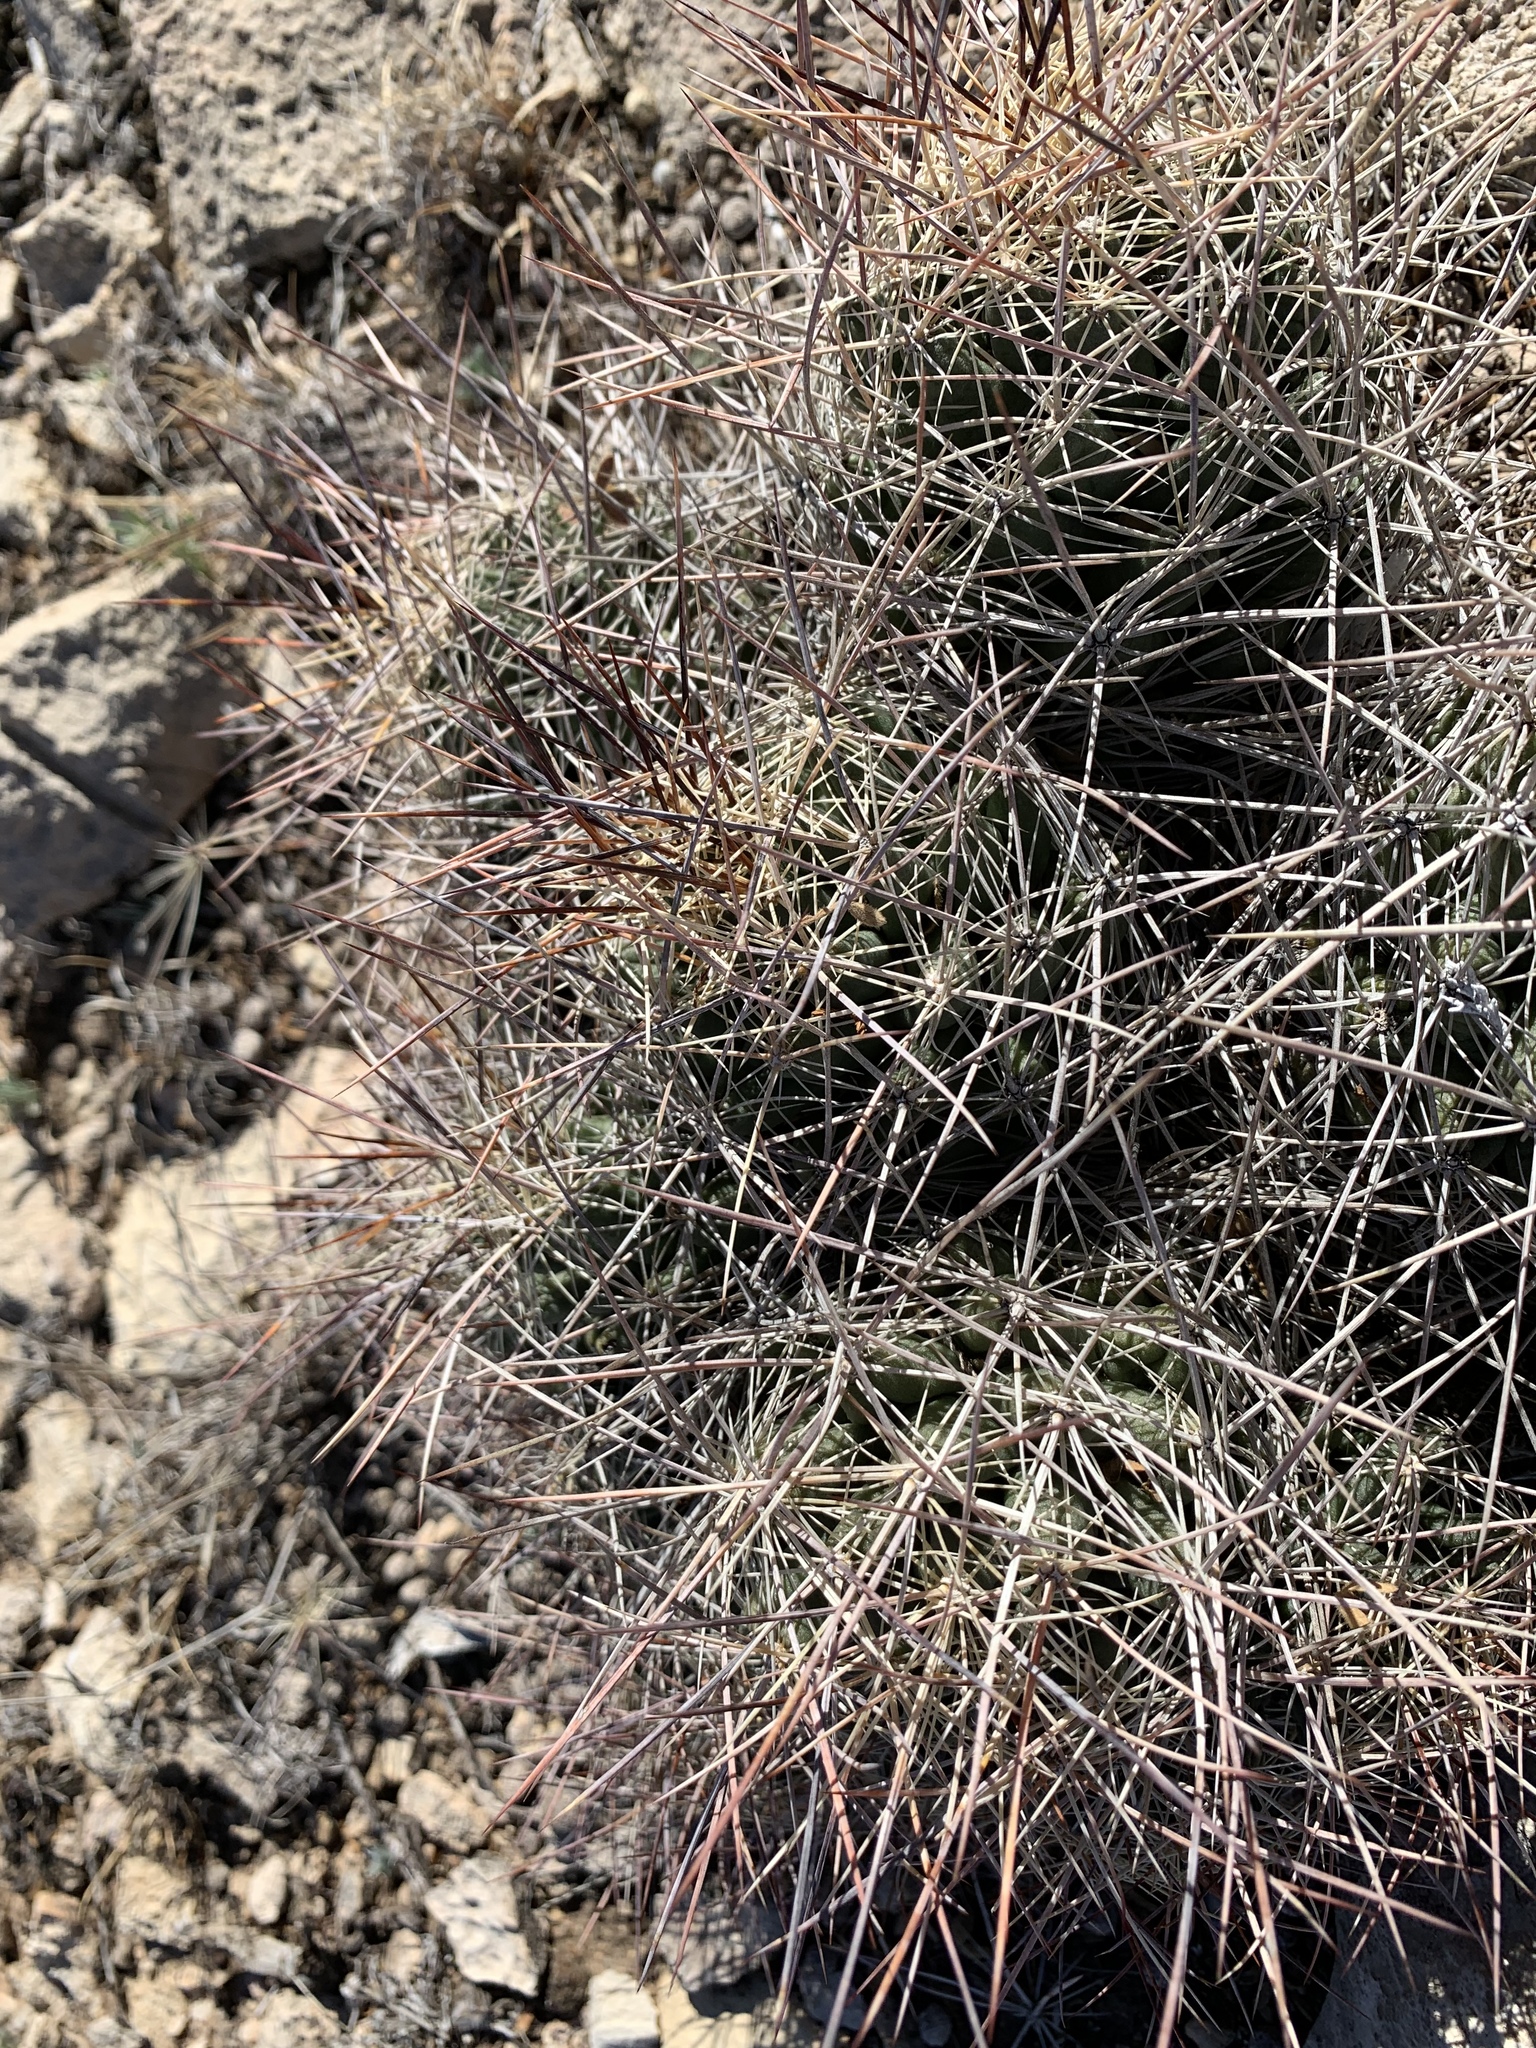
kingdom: Plantae
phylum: Tracheophyta
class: Magnoliopsida
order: Caryophyllales
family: Cactaceae
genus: Coryphantha
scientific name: Coryphantha macromeris
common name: Nipple beehive cactus
